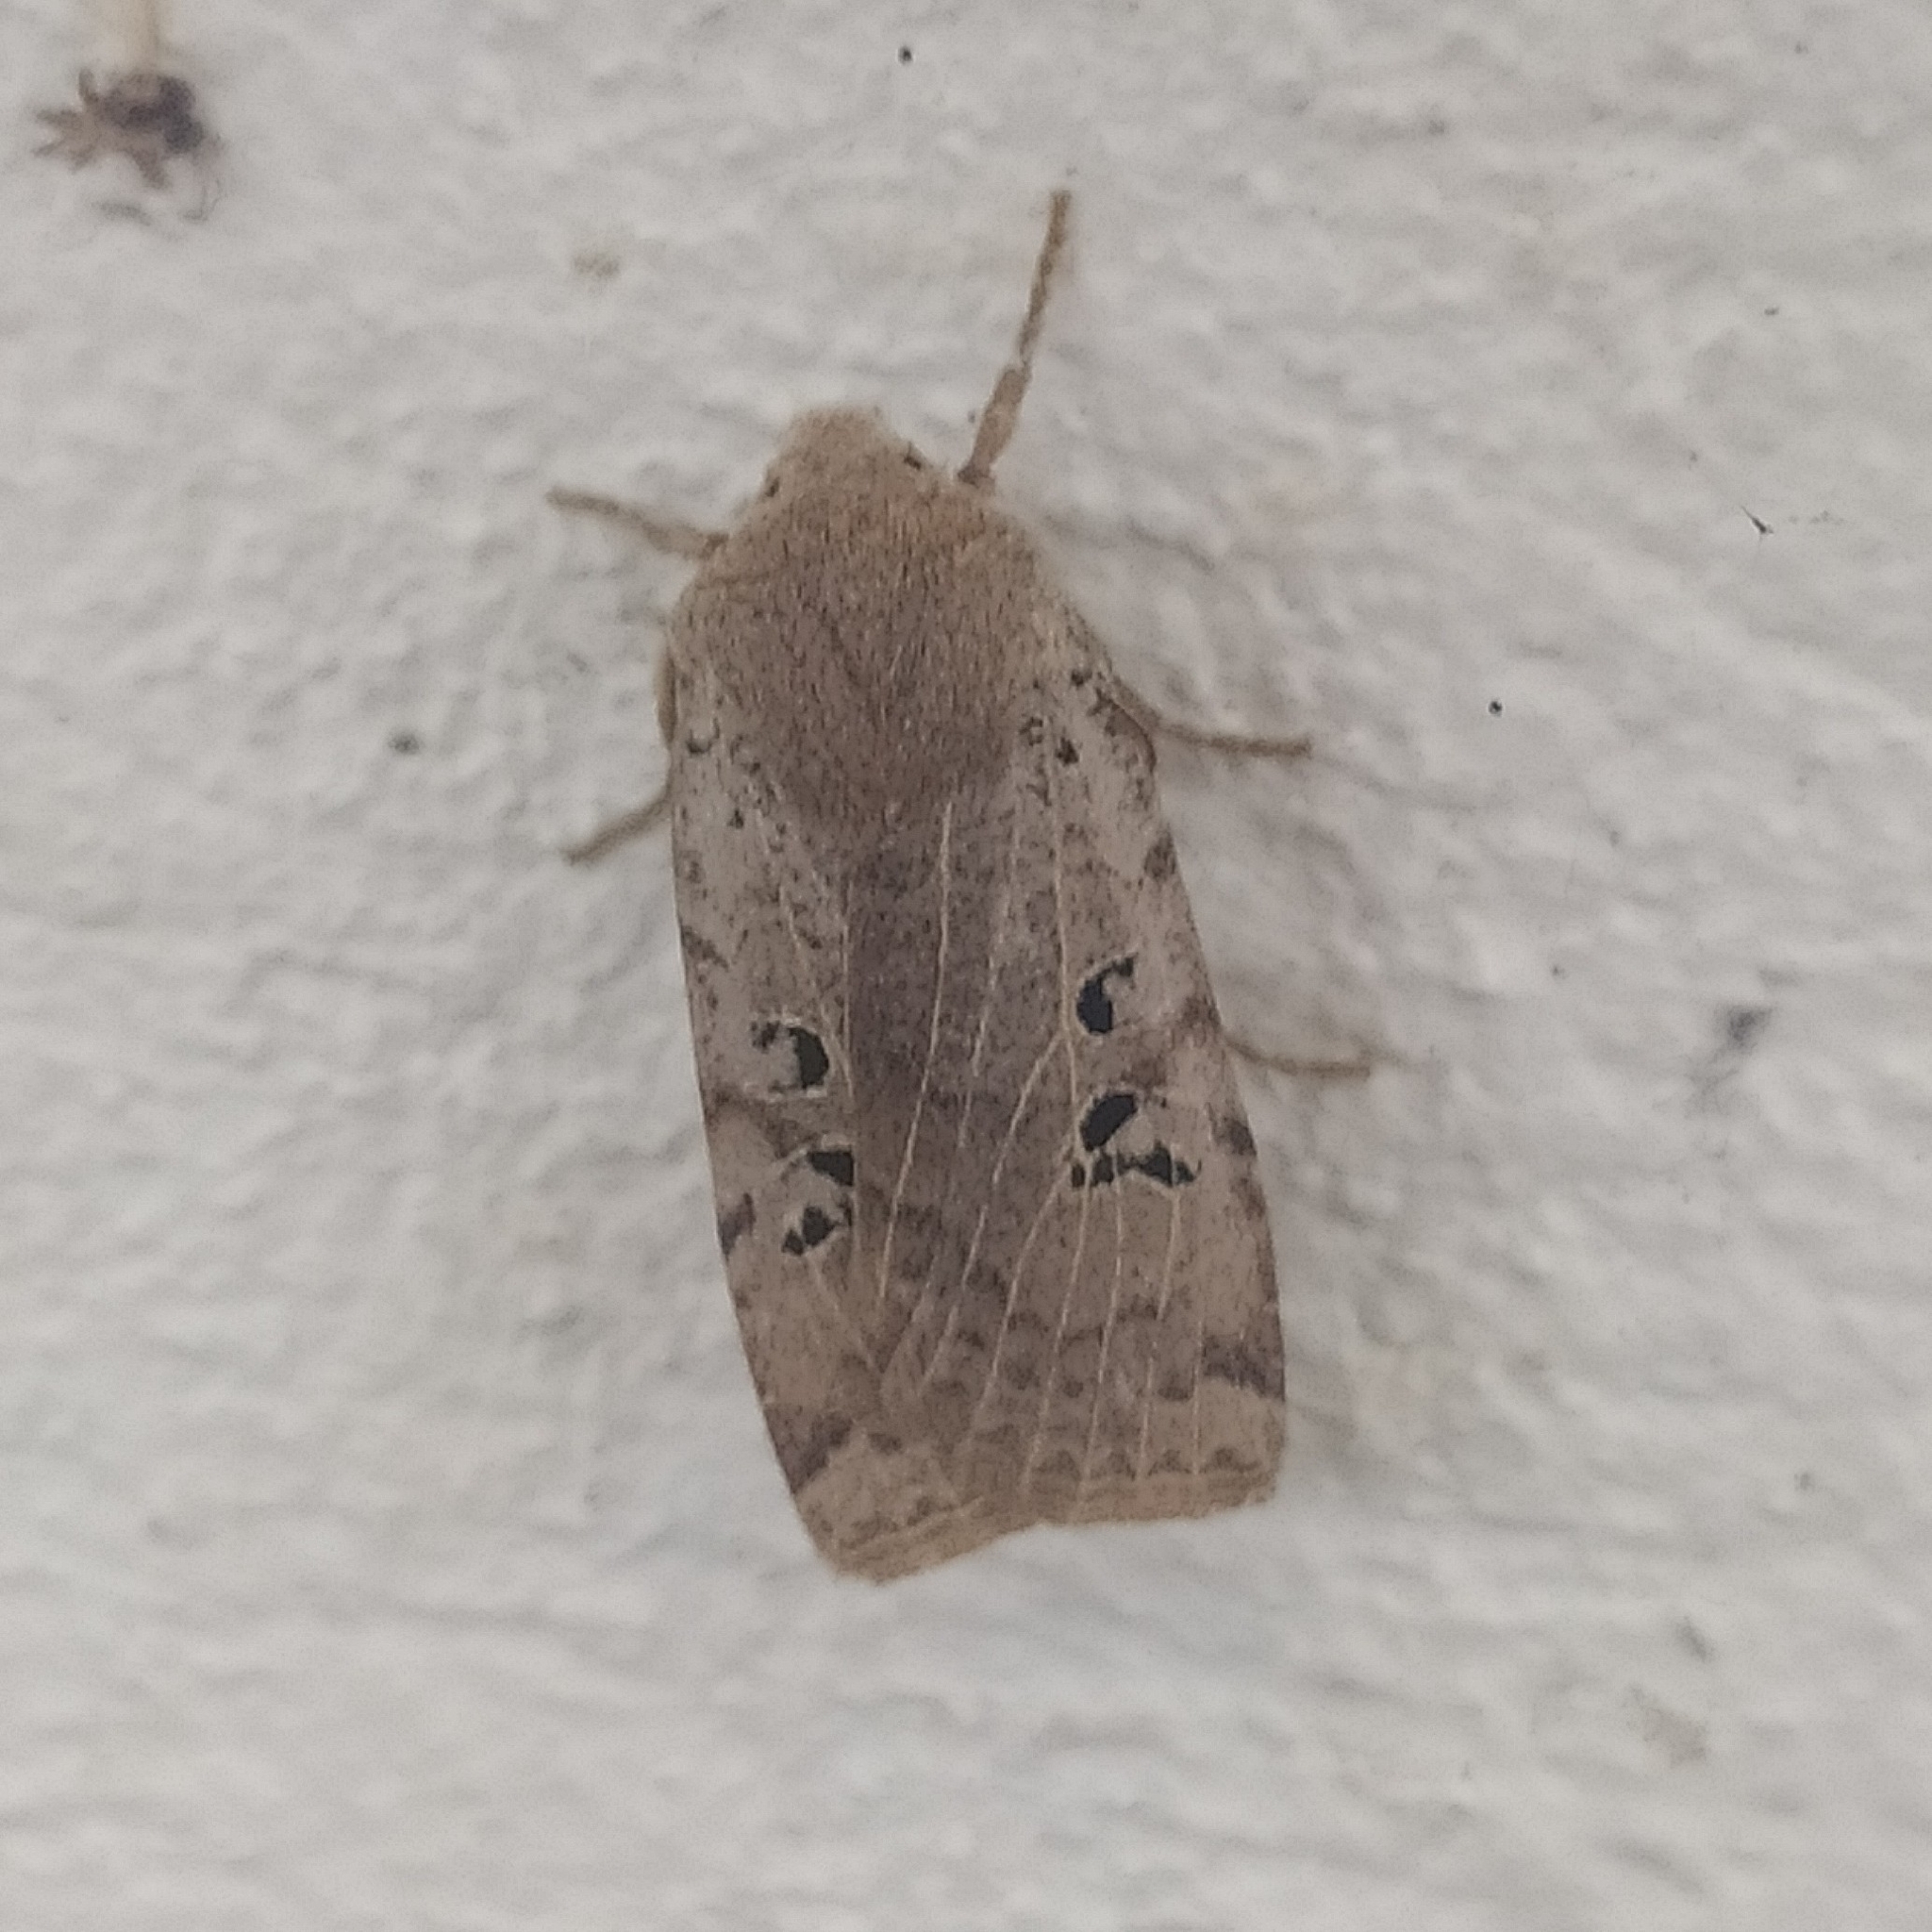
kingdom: Animalia
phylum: Arthropoda
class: Insecta
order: Lepidoptera
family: Noctuidae
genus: Conistra
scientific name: Conistra rubiginosa
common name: Black-spotted chestnut
